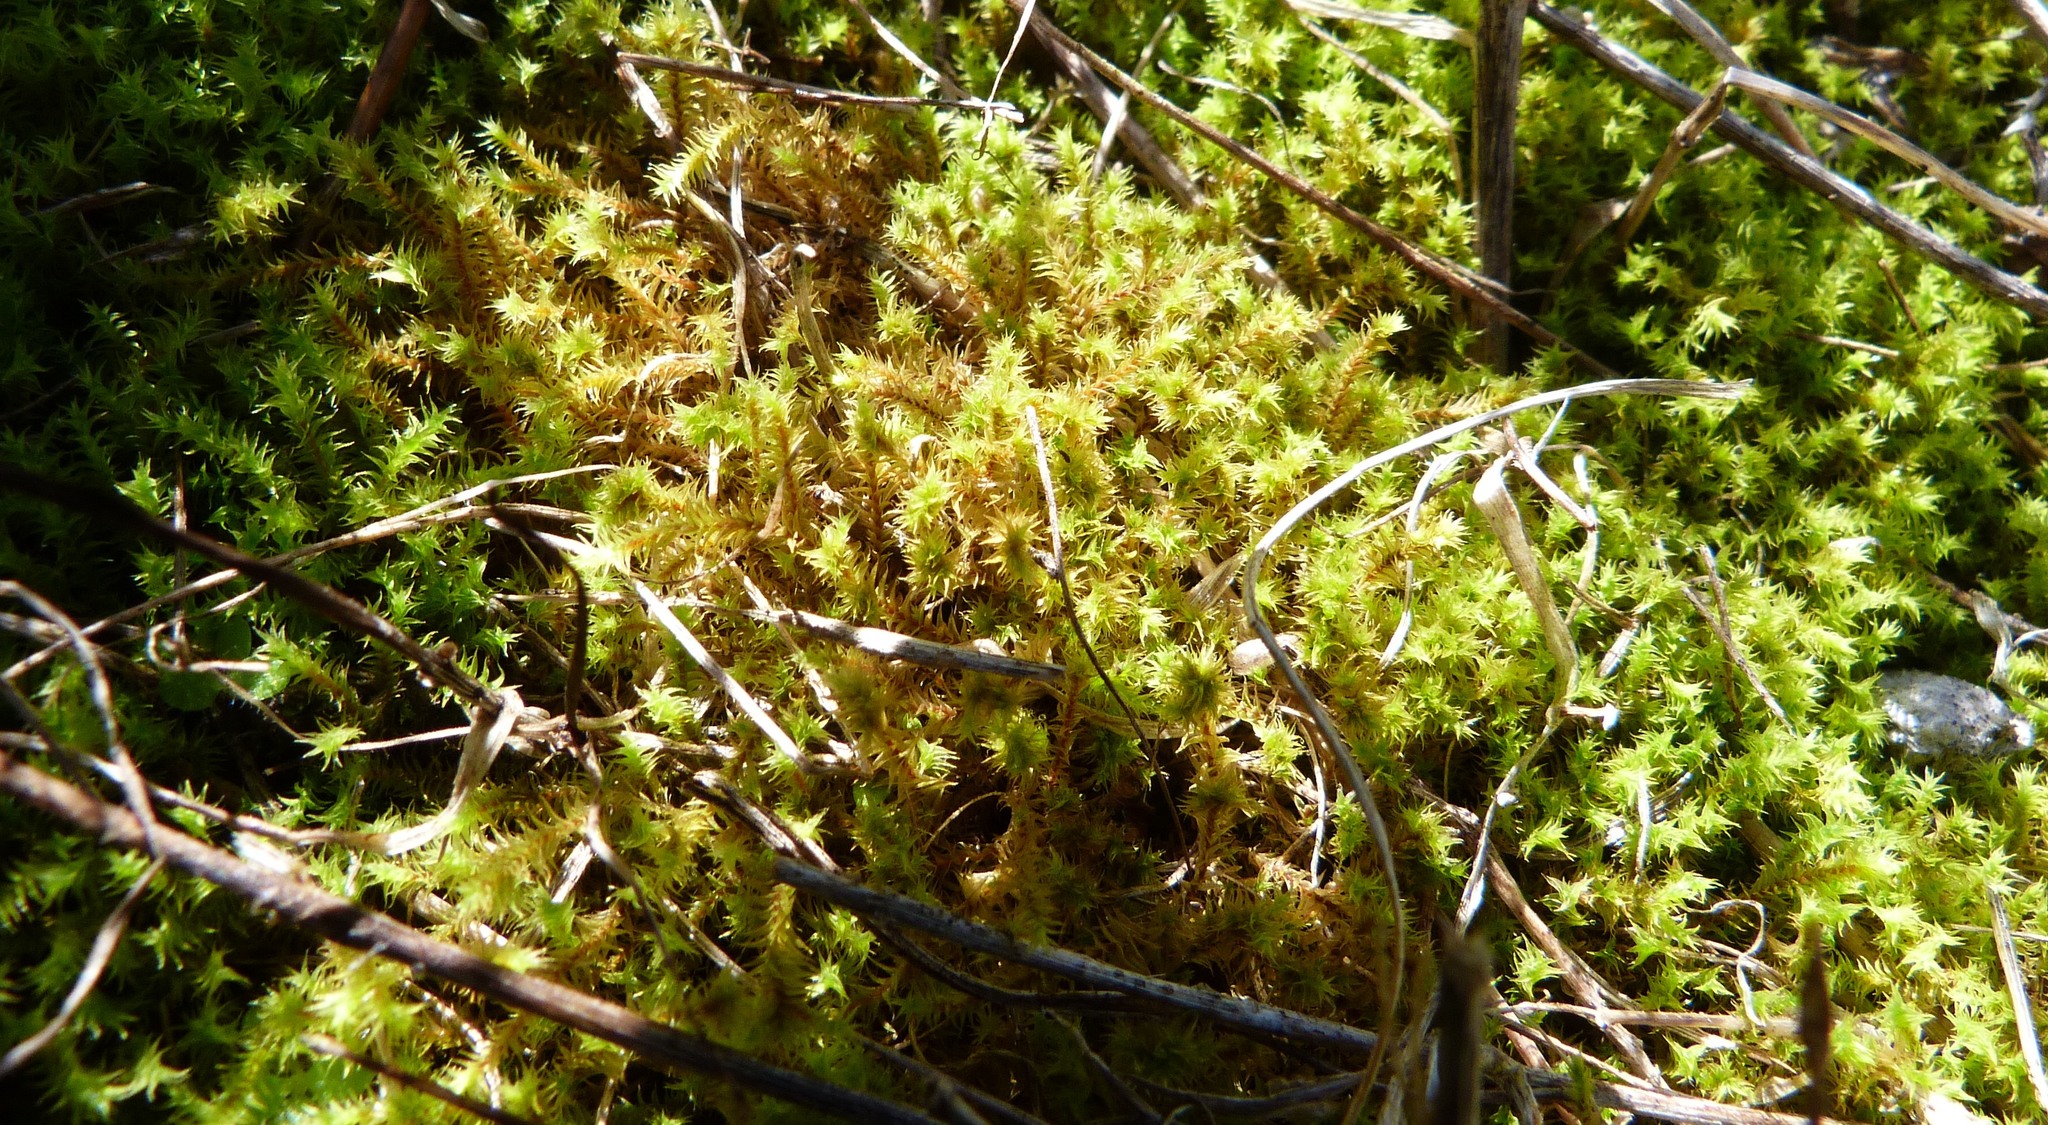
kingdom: Plantae
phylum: Bryophyta
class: Bryopsida
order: Pottiales
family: Pottiaceae
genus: Triquetrella
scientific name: Triquetrella papillata
